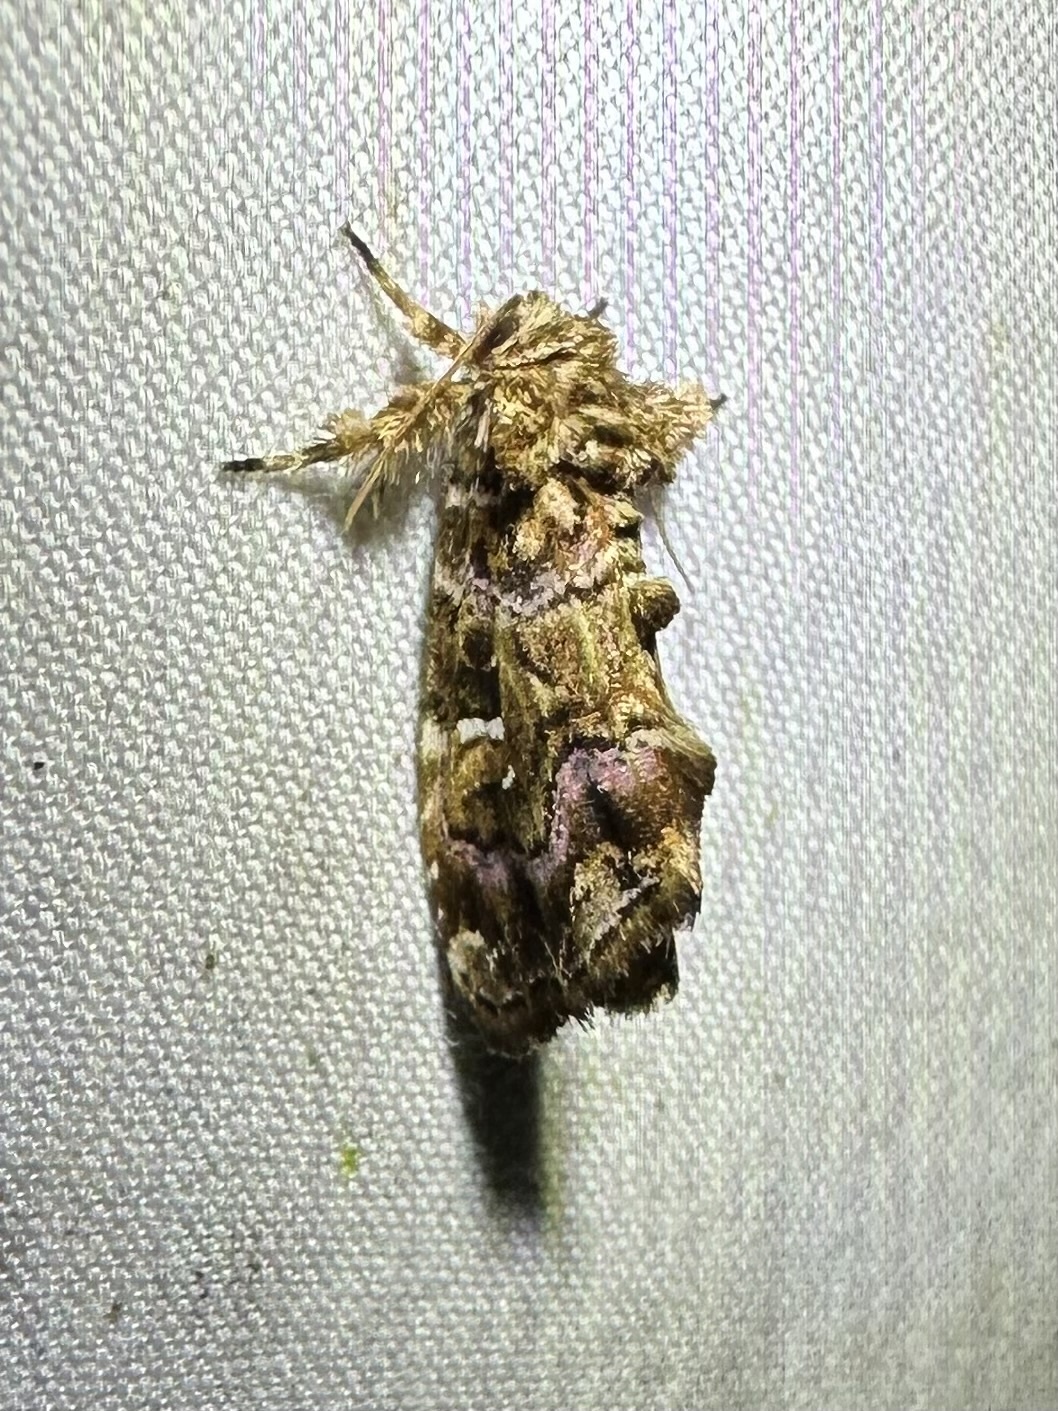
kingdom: Animalia
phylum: Arthropoda
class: Insecta
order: Lepidoptera
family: Noctuidae
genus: Callopistria
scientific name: Callopistria mollissima
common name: Pink-shaded fern moth
